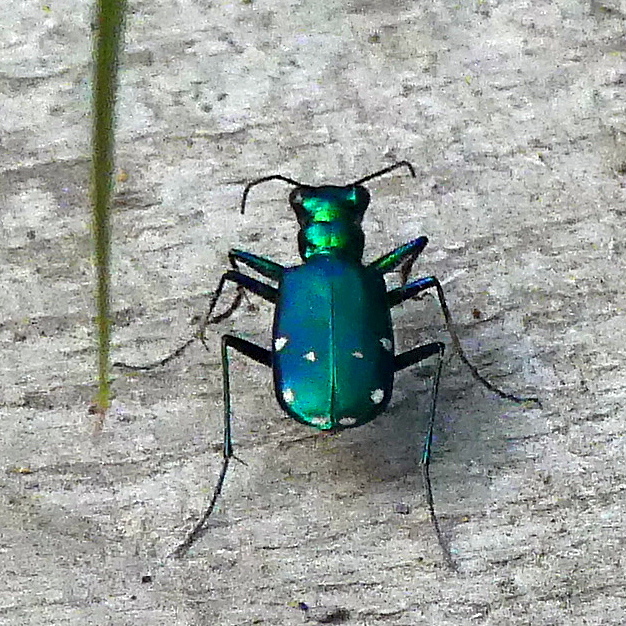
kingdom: Animalia
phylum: Arthropoda
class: Insecta
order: Coleoptera
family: Carabidae
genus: Cicindela
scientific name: Cicindela sexguttata
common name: Six-spotted tiger beetle
